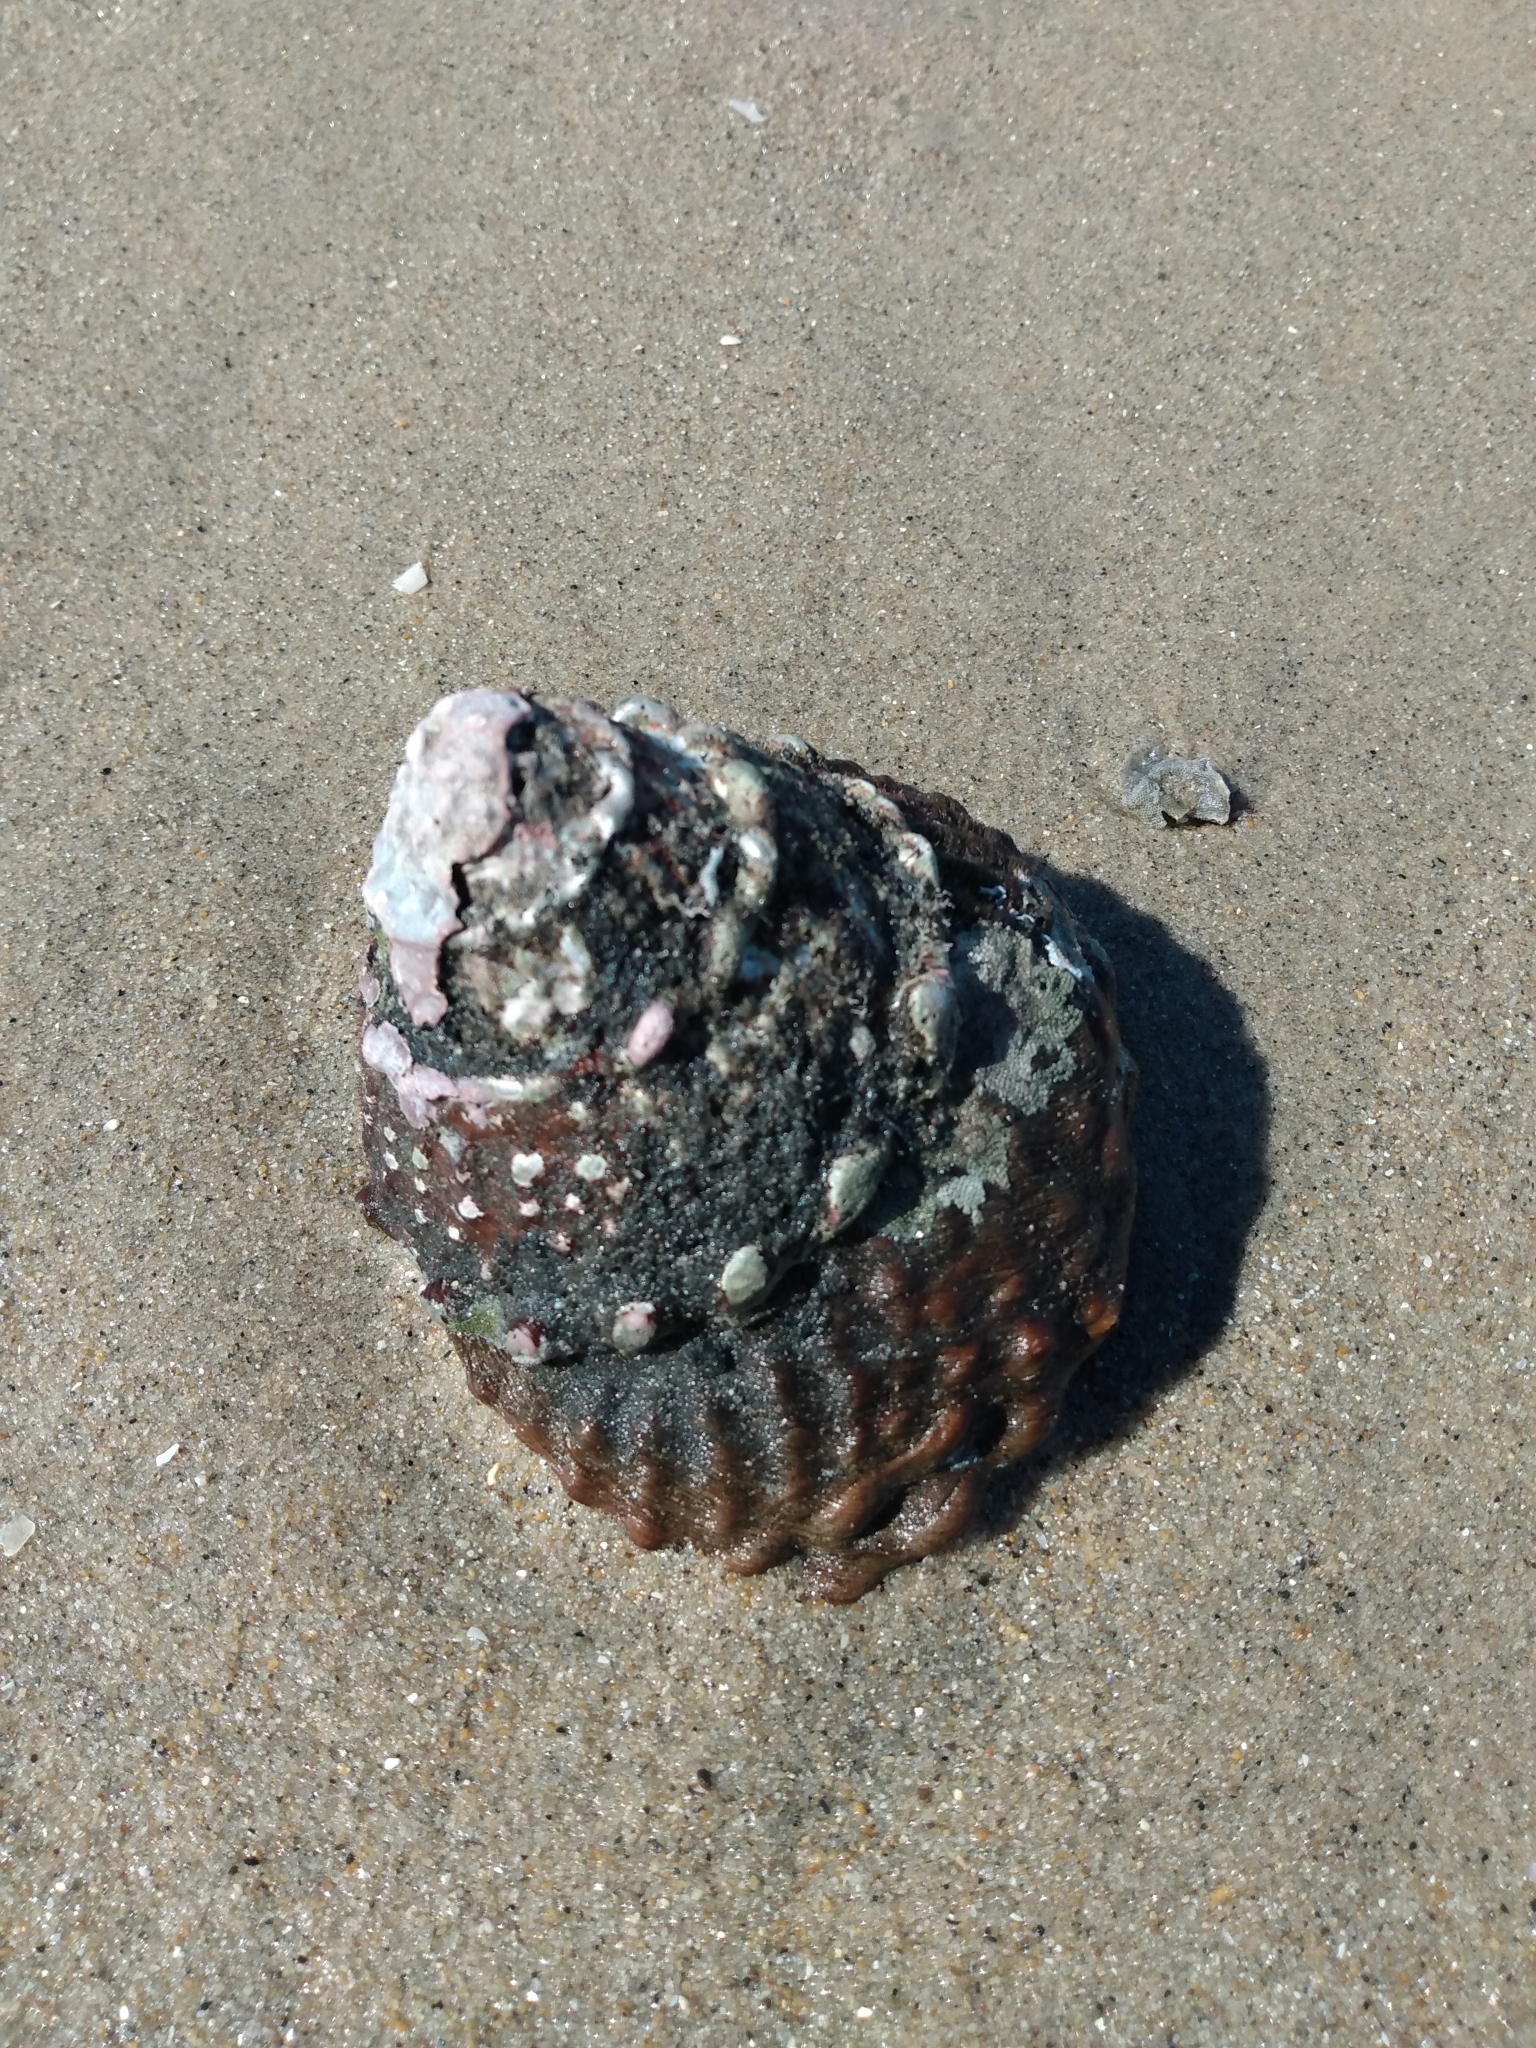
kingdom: Animalia
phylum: Mollusca
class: Gastropoda
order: Trochida
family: Turbinidae
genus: Megastraea
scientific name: Megastraea undosa
